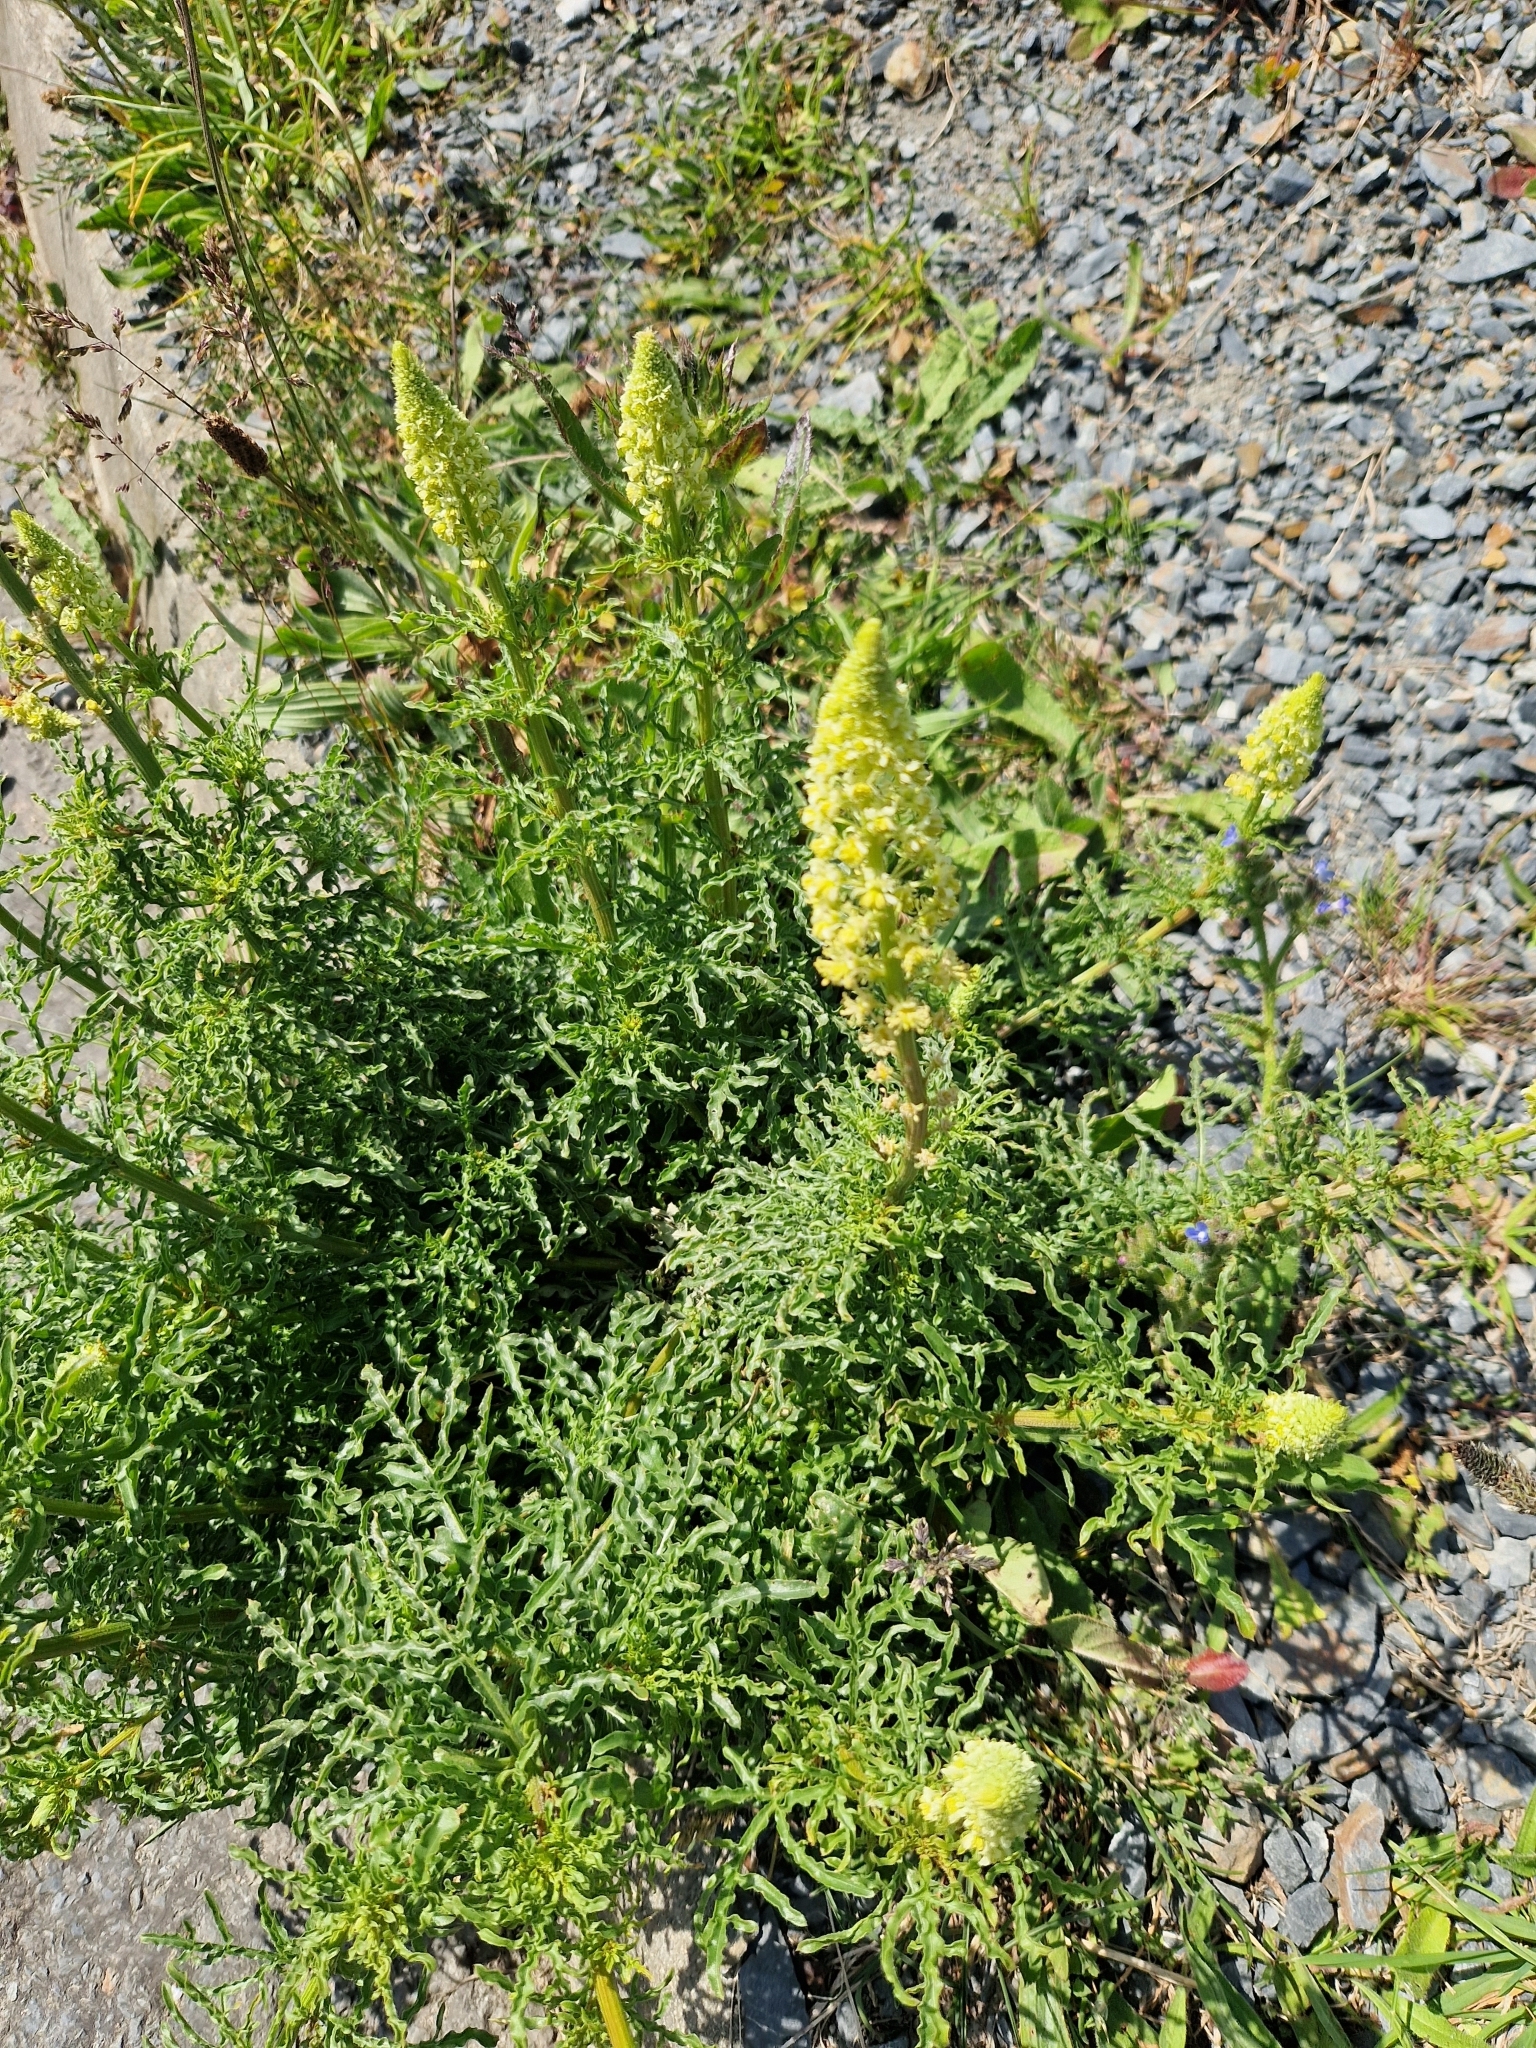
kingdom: Plantae
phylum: Tracheophyta
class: Magnoliopsida
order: Brassicales
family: Resedaceae
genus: Reseda
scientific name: Reseda lutea
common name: Wild mignonette
